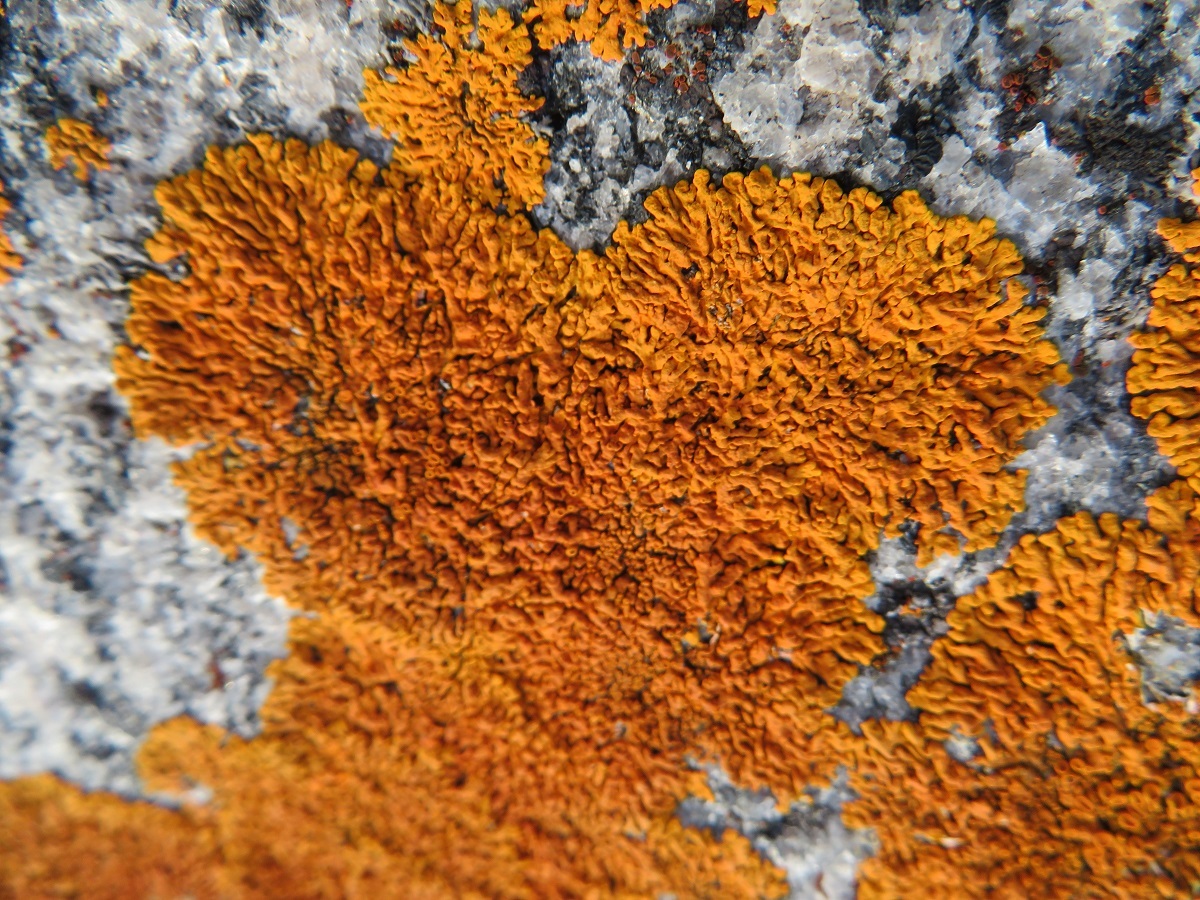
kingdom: Fungi
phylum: Ascomycota
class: Lecanoromycetes
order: Teloschistales
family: Teloschistaceae
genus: Xanthoria
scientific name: Xanthoria elegans
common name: Elegant sunburst lichen
